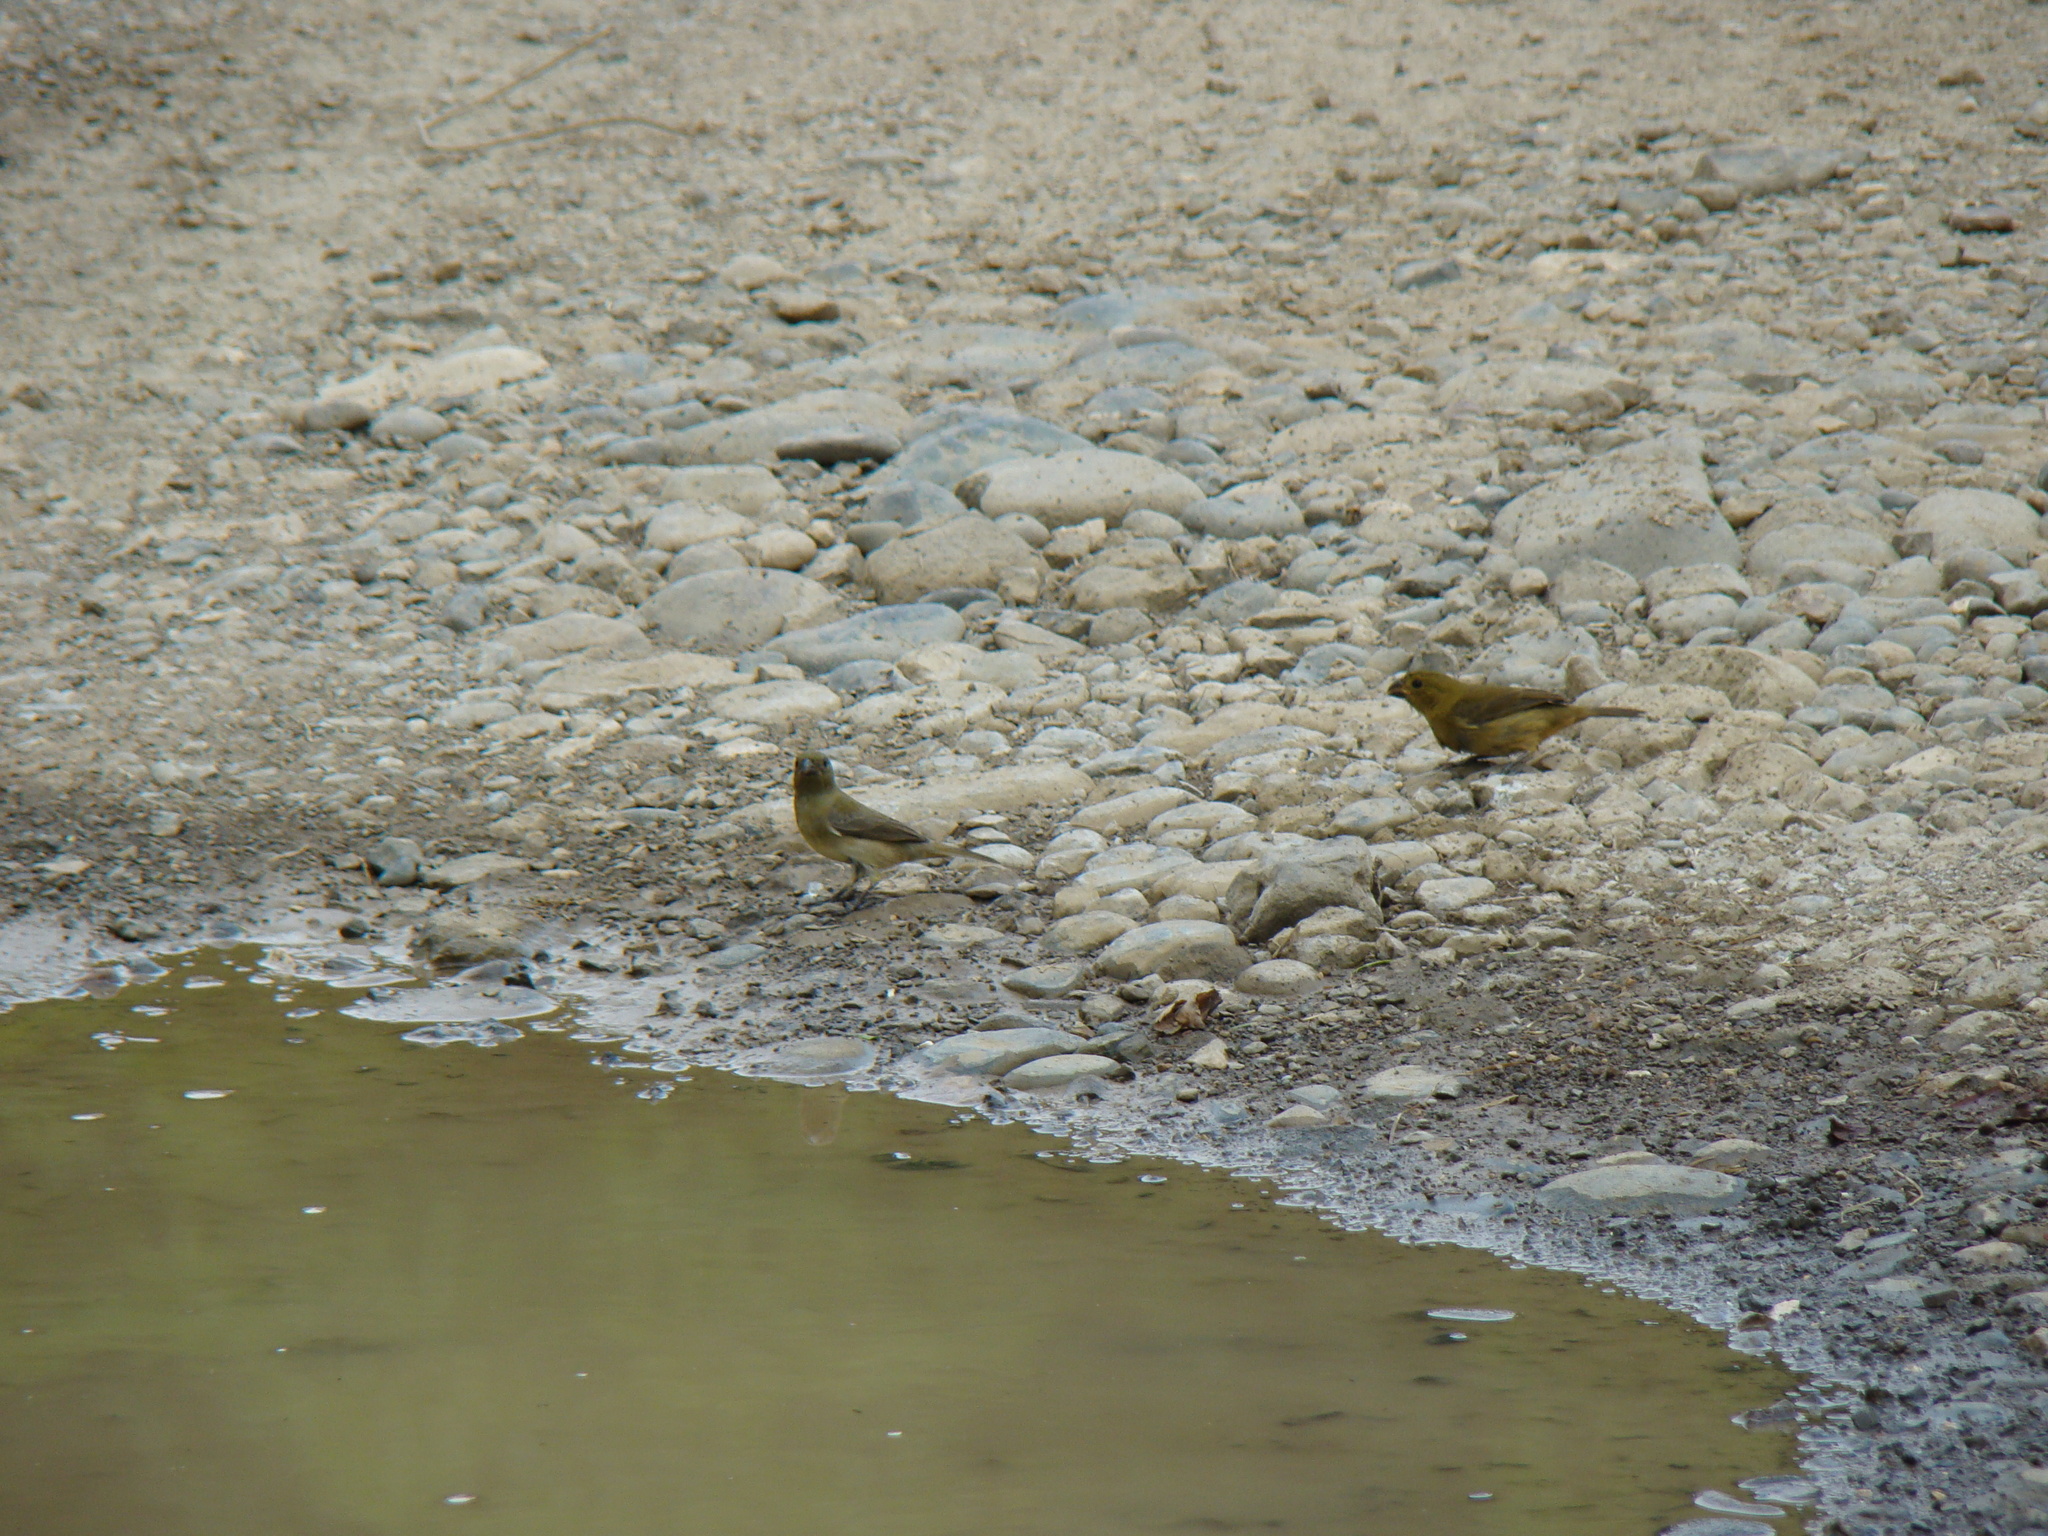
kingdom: Animalia
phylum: Chordata
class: Aves
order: Passeriformes
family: Thraupidae
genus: Sporophila
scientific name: Sporophila minuta
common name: Ruddy-breasted seedeater
